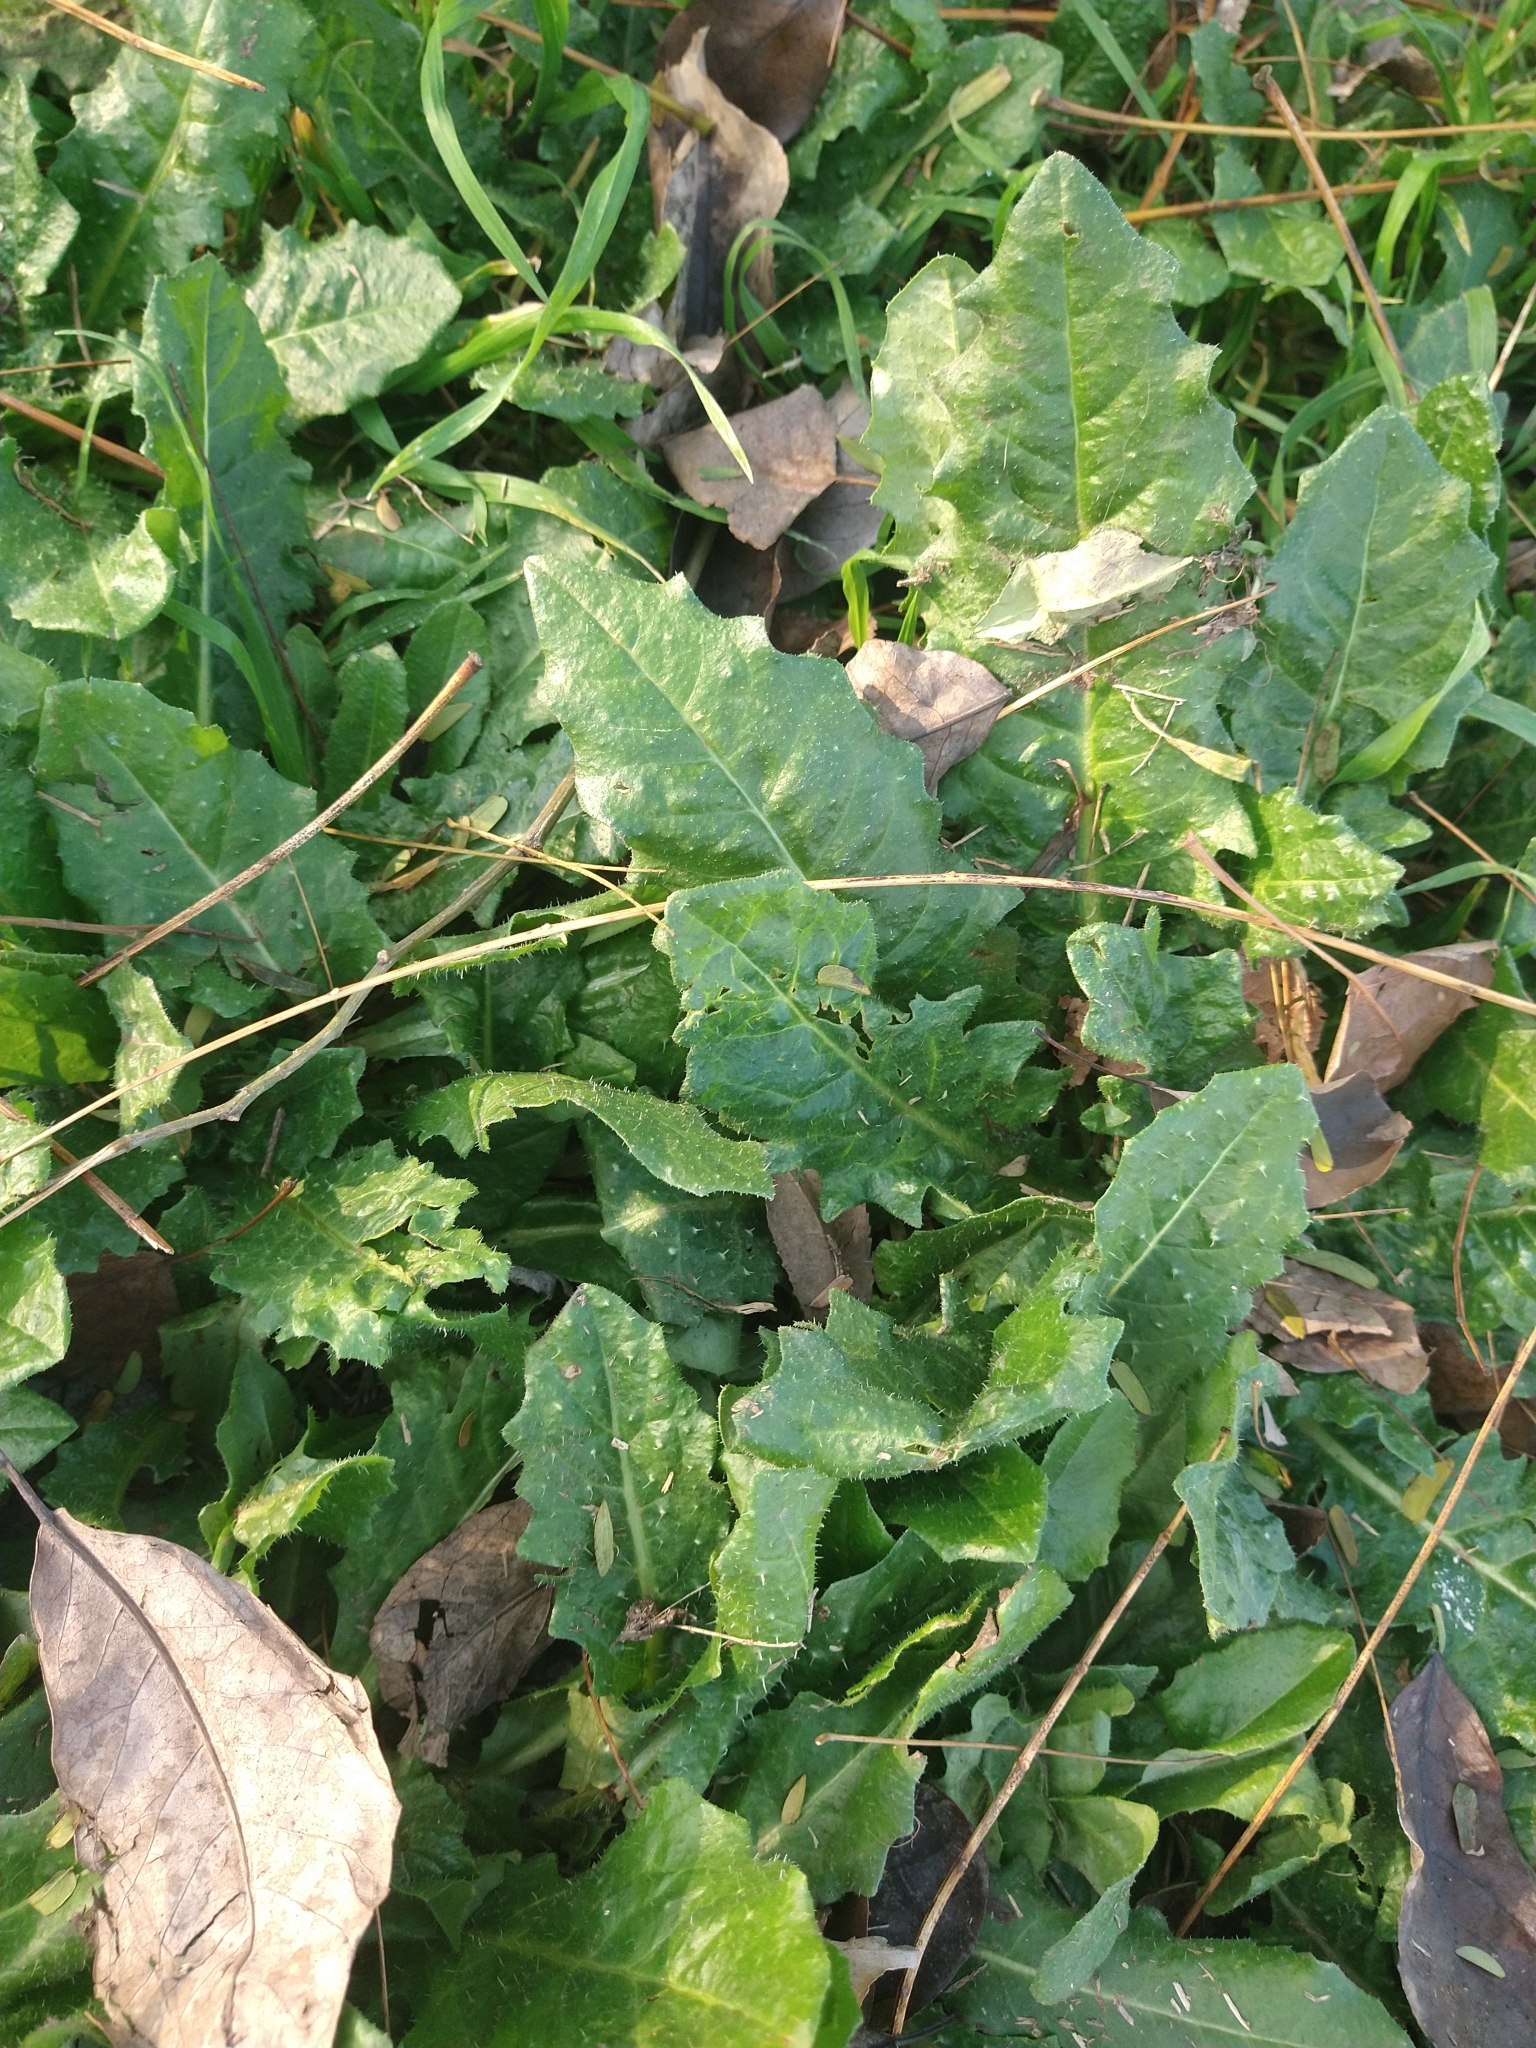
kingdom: Plantae
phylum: Tracheophyta
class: Magnoliopsida
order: Asterales
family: Asteraceae
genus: Helminthotheca
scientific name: Helminthotheca echioides
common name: Ox-tongue
